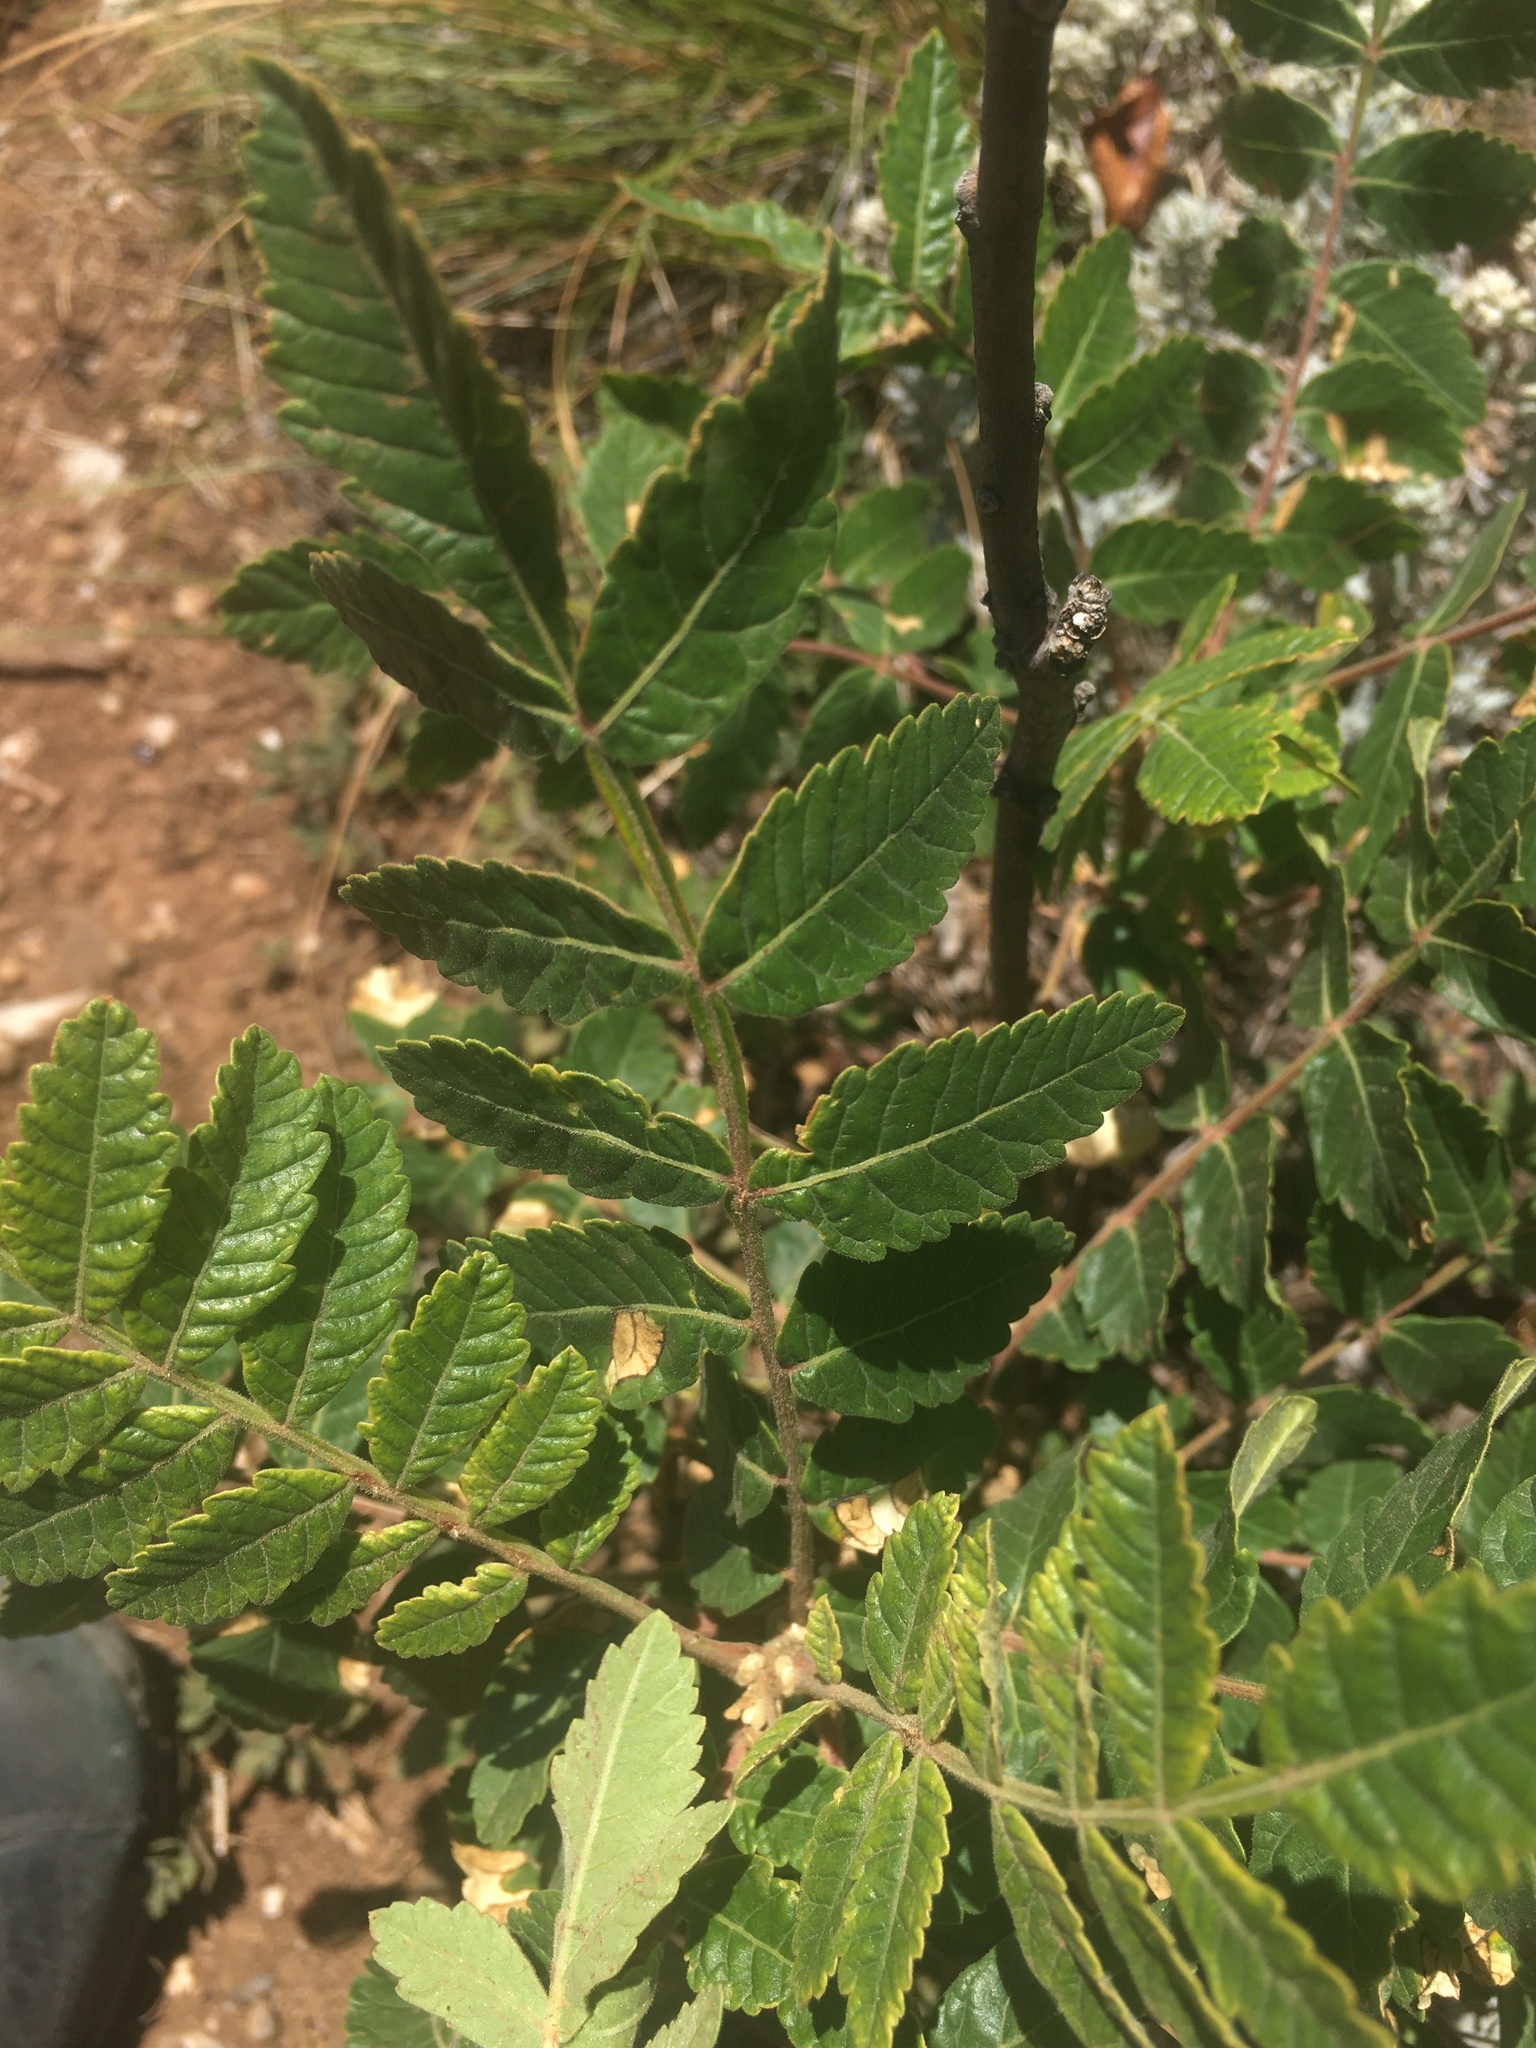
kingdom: Plantae
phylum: Tracheophyta
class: Magnoliopsida
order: Sapindales
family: Anacardiaceae
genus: Rhus
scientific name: Rhus coriaria
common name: Tanner's sumach
